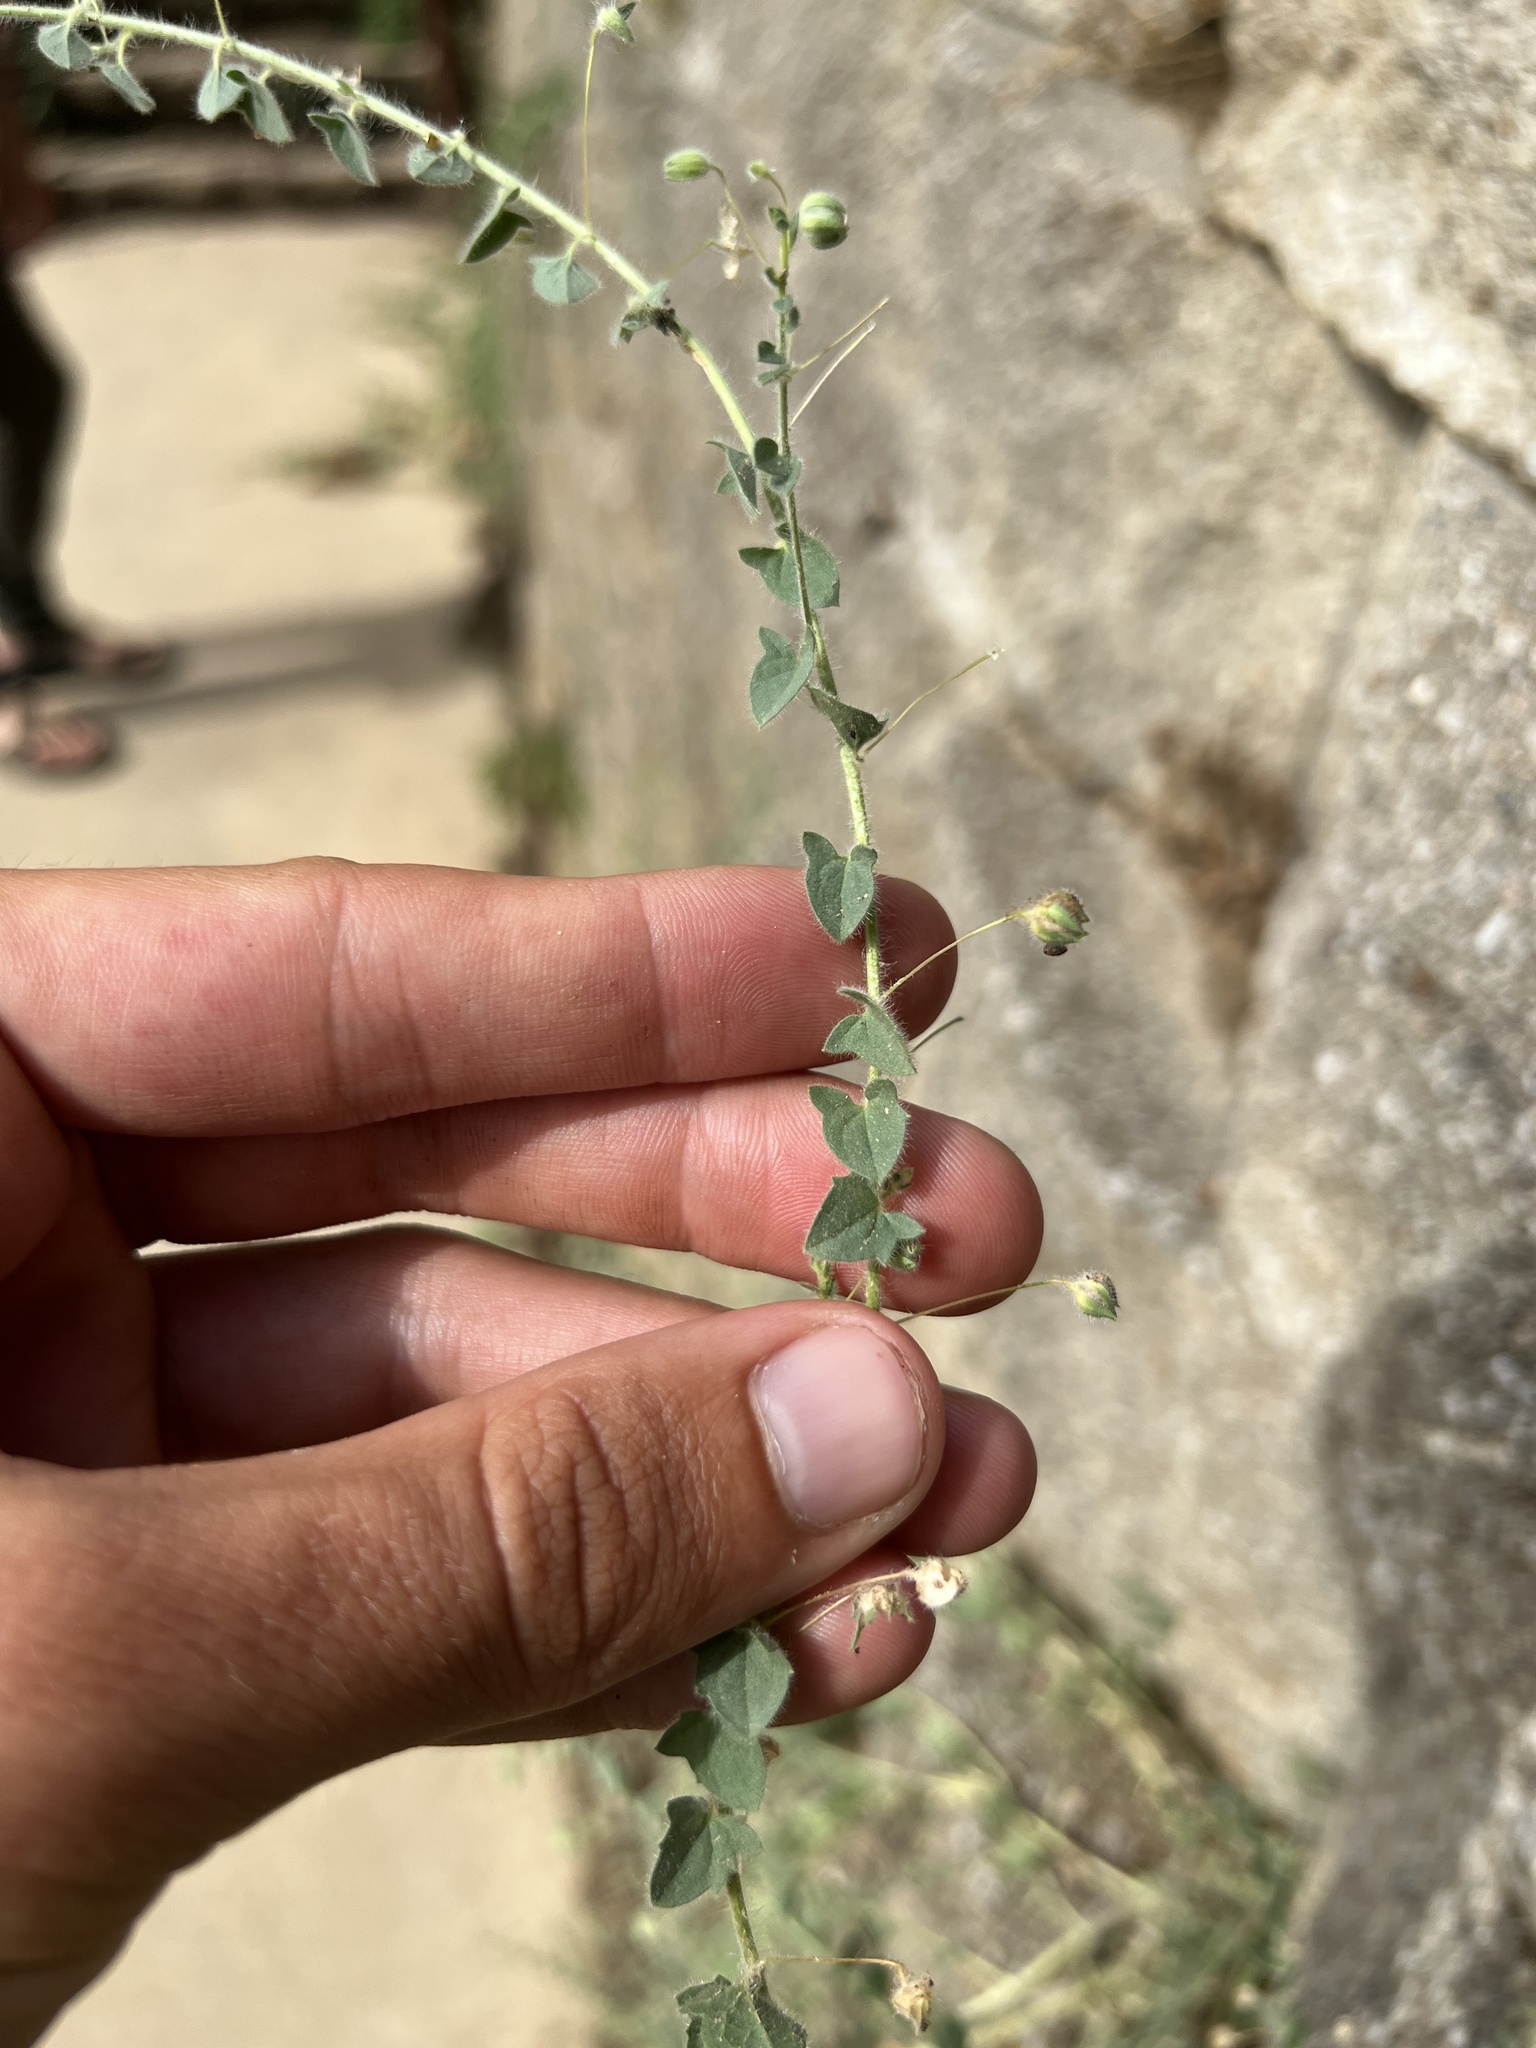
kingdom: Plantae
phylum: Tracheophyta
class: Magnoliopsida
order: Lamiales
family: Plantaginaceae
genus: Kickxia
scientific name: Kickxia elatine
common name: Sharp-leaved fluellen
